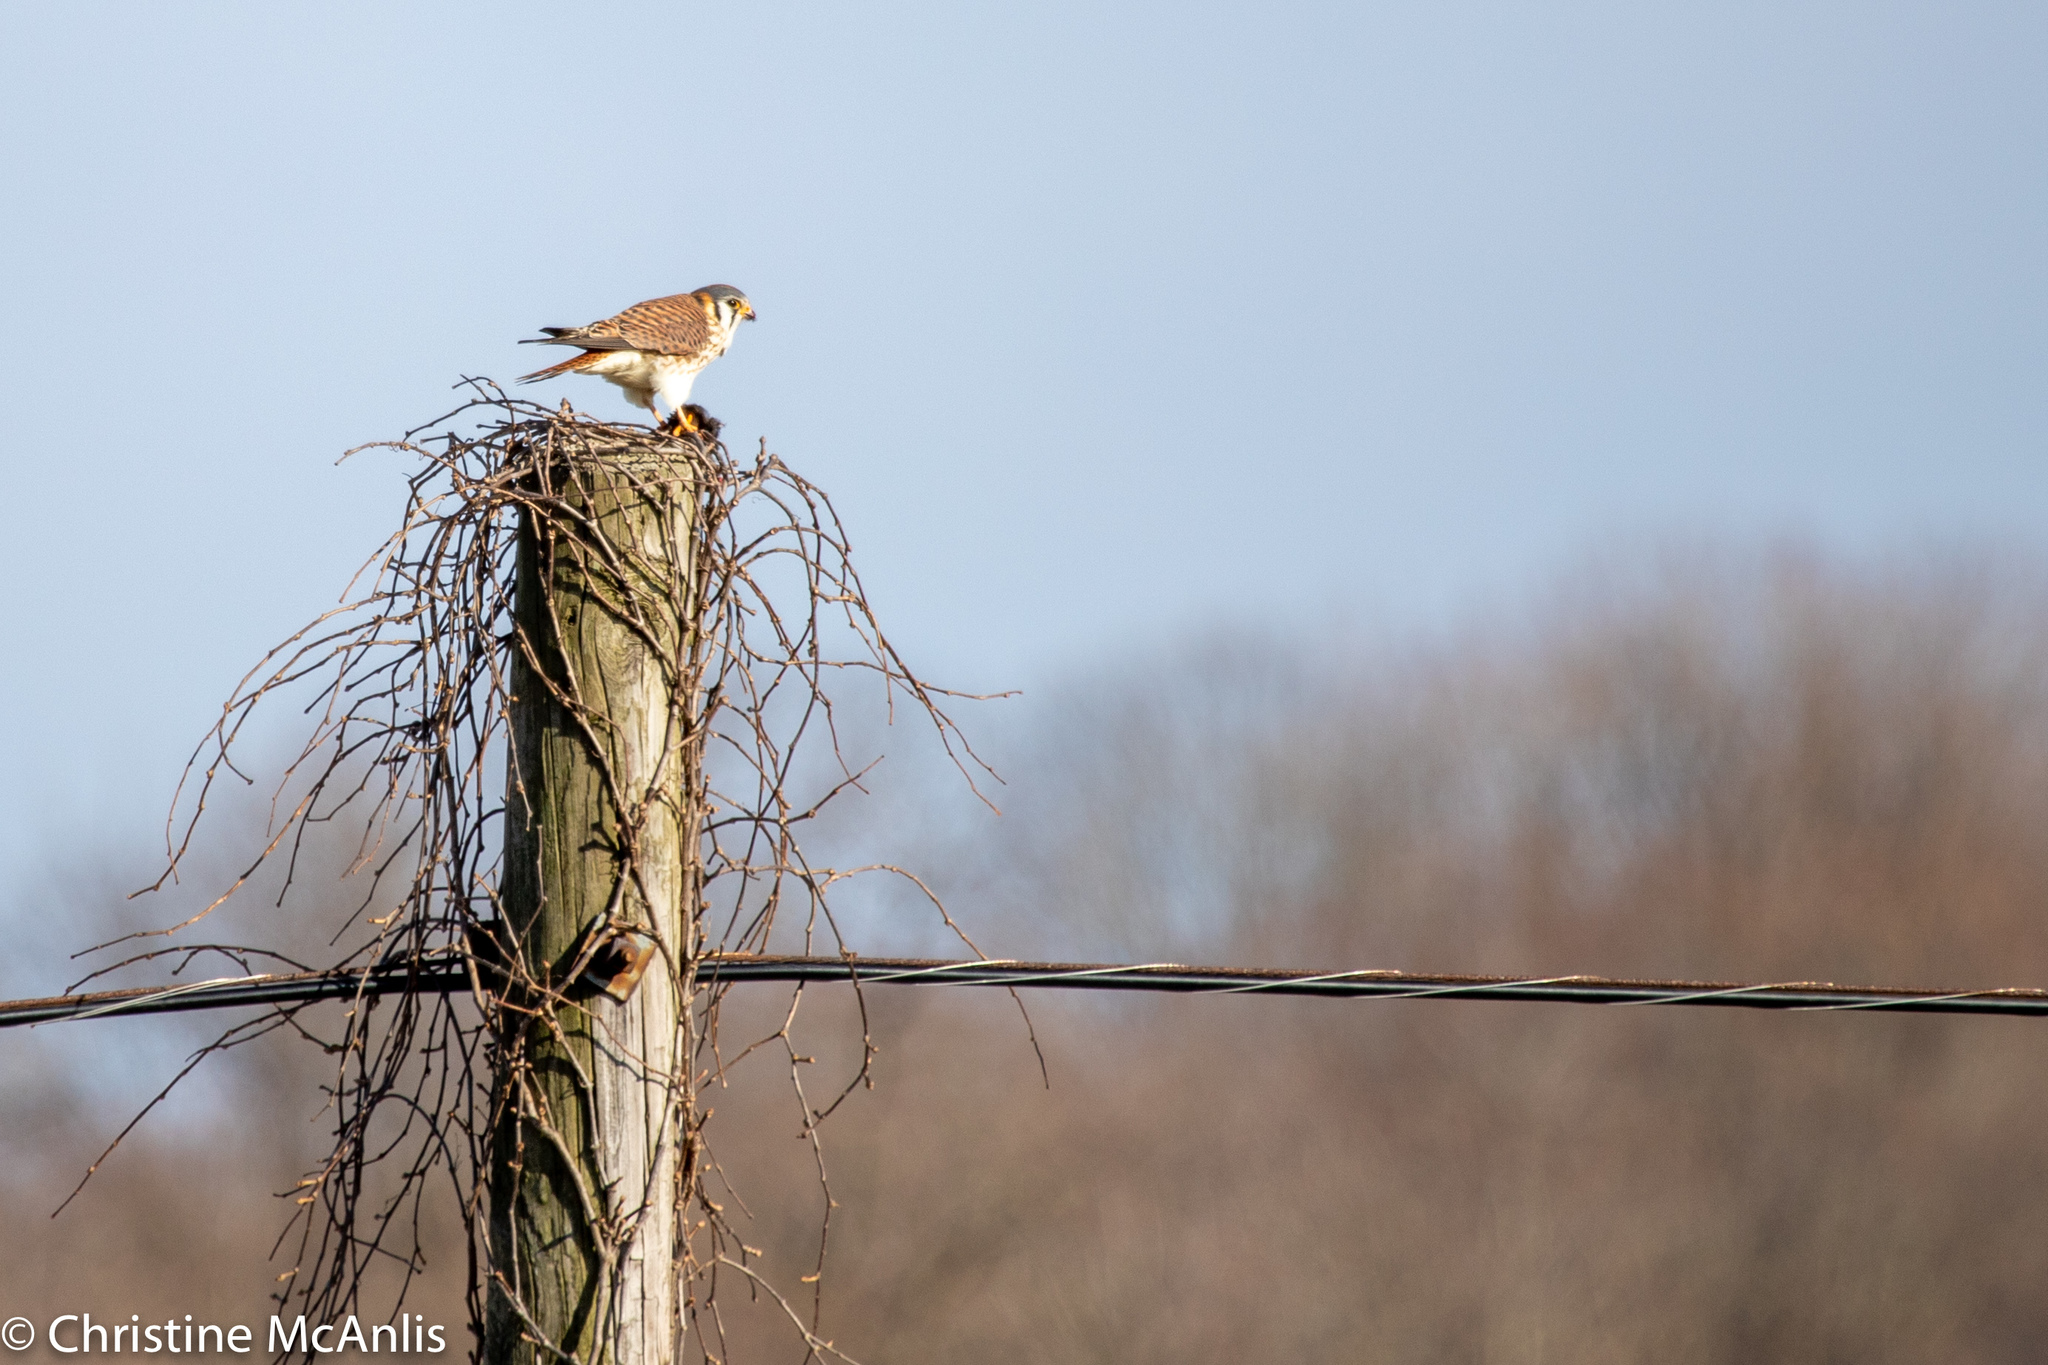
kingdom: Animalia
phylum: Chordata
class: Aves
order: Falconiformes
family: Falconidae
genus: Falco
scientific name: Falco sparverius
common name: American kestrel
